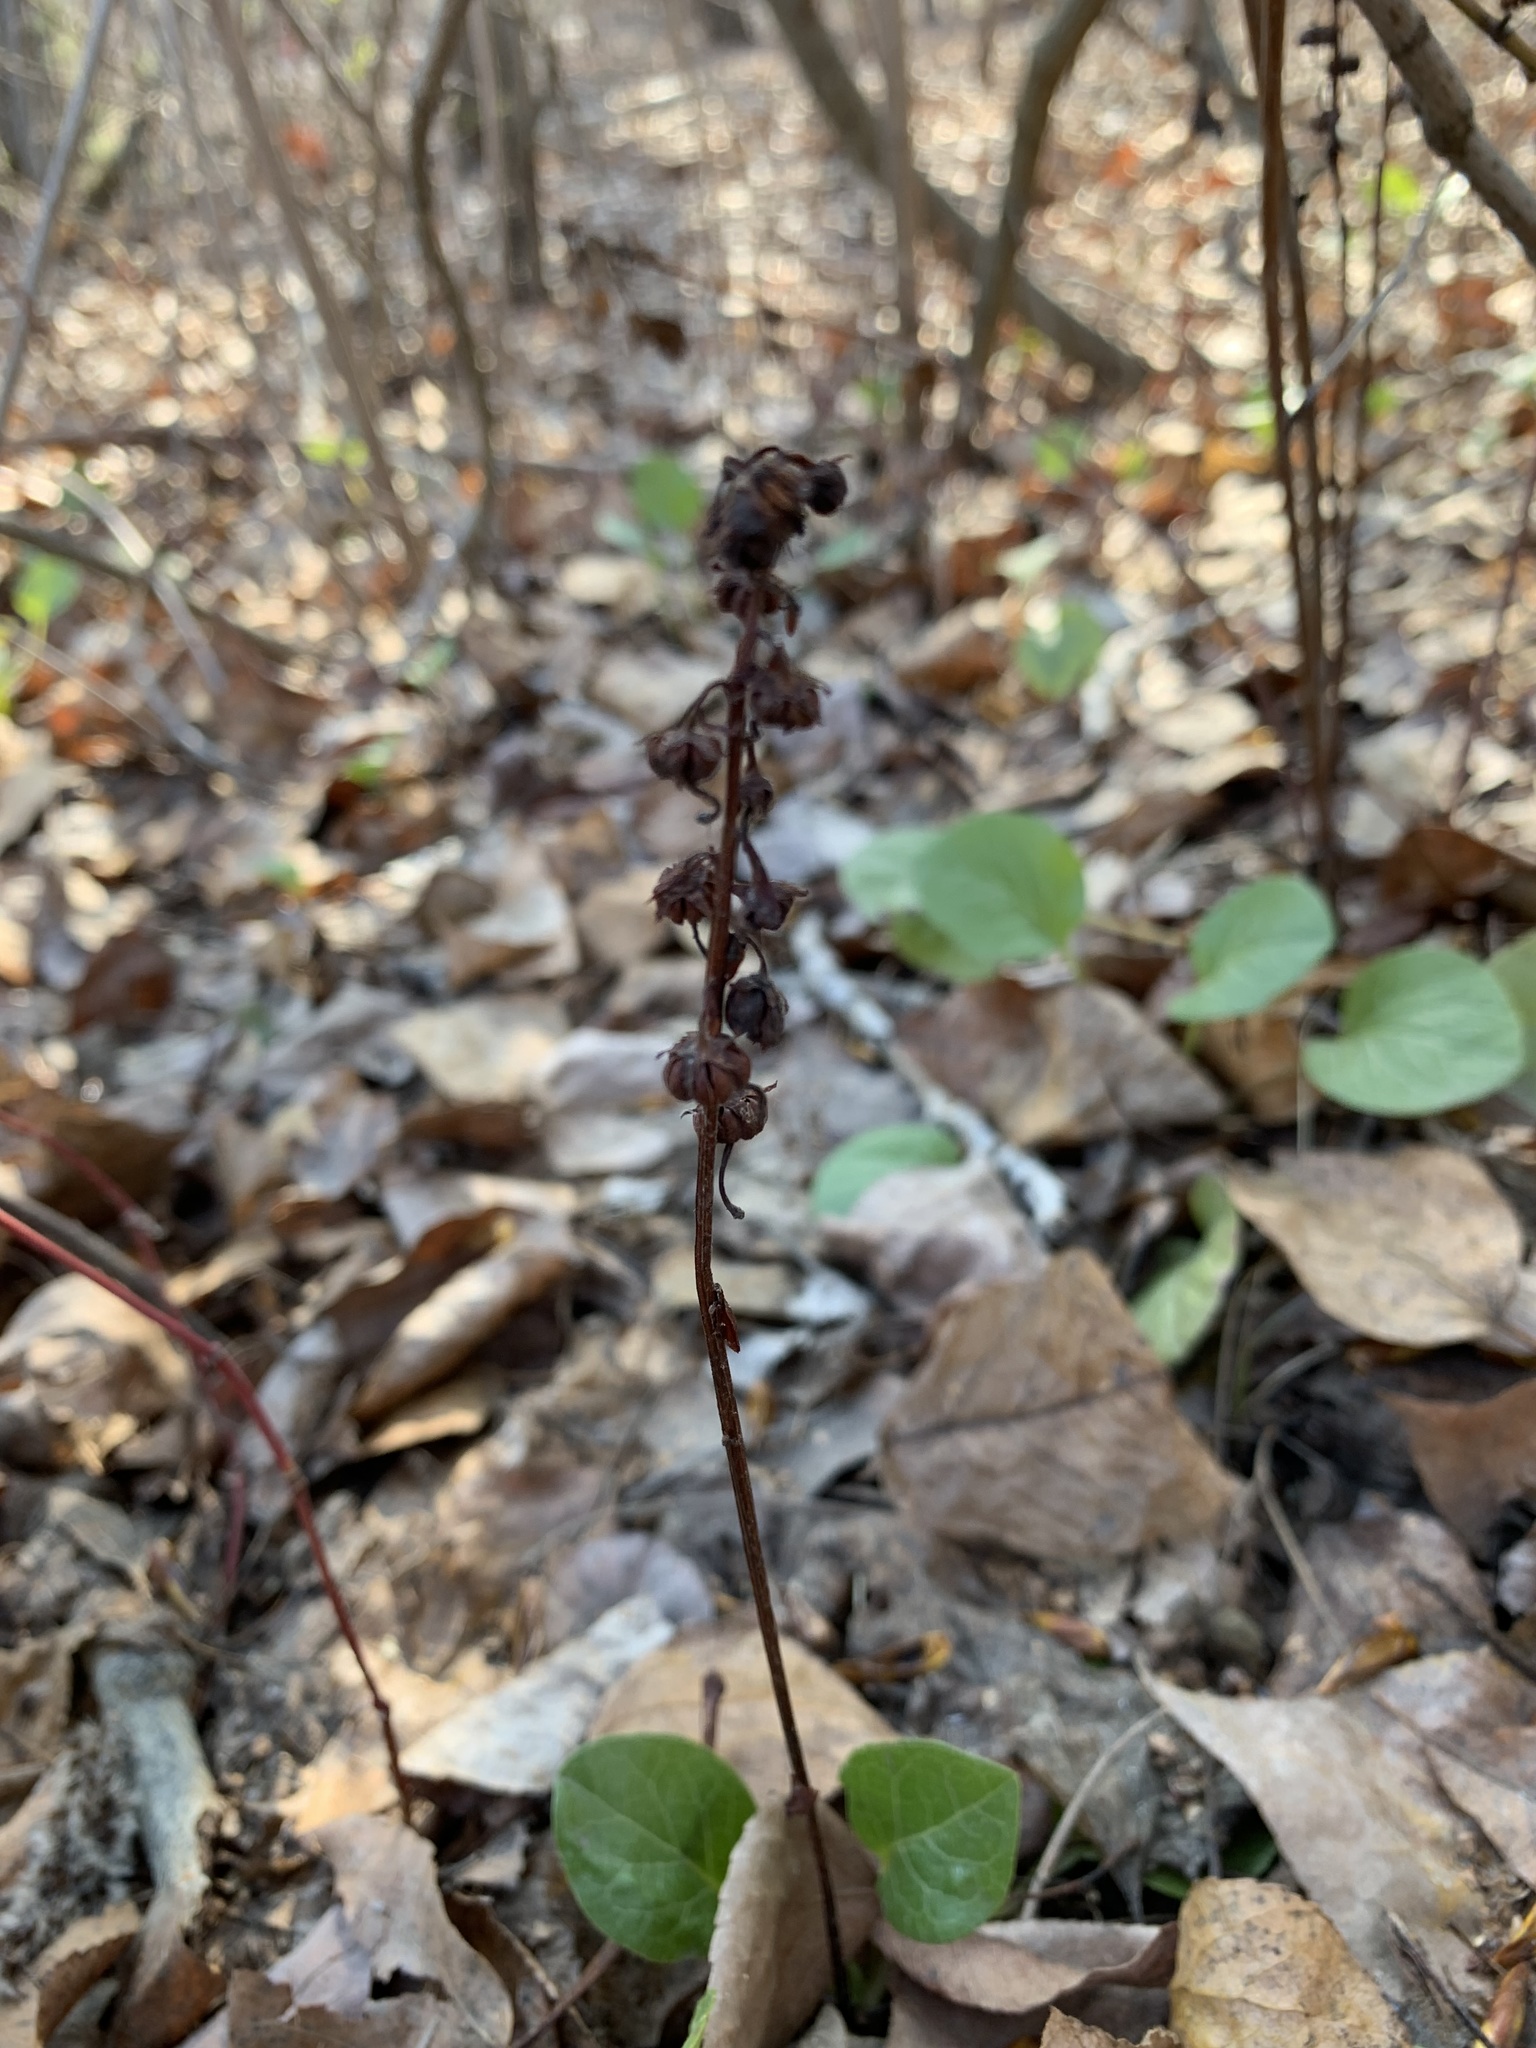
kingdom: Plantae
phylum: Tracheophyta
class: Magnoliopsida
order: Ericales
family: Ericaceae
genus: Pyrola
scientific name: Pyrola rotundifolia
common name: Round-leaved wintergreen
